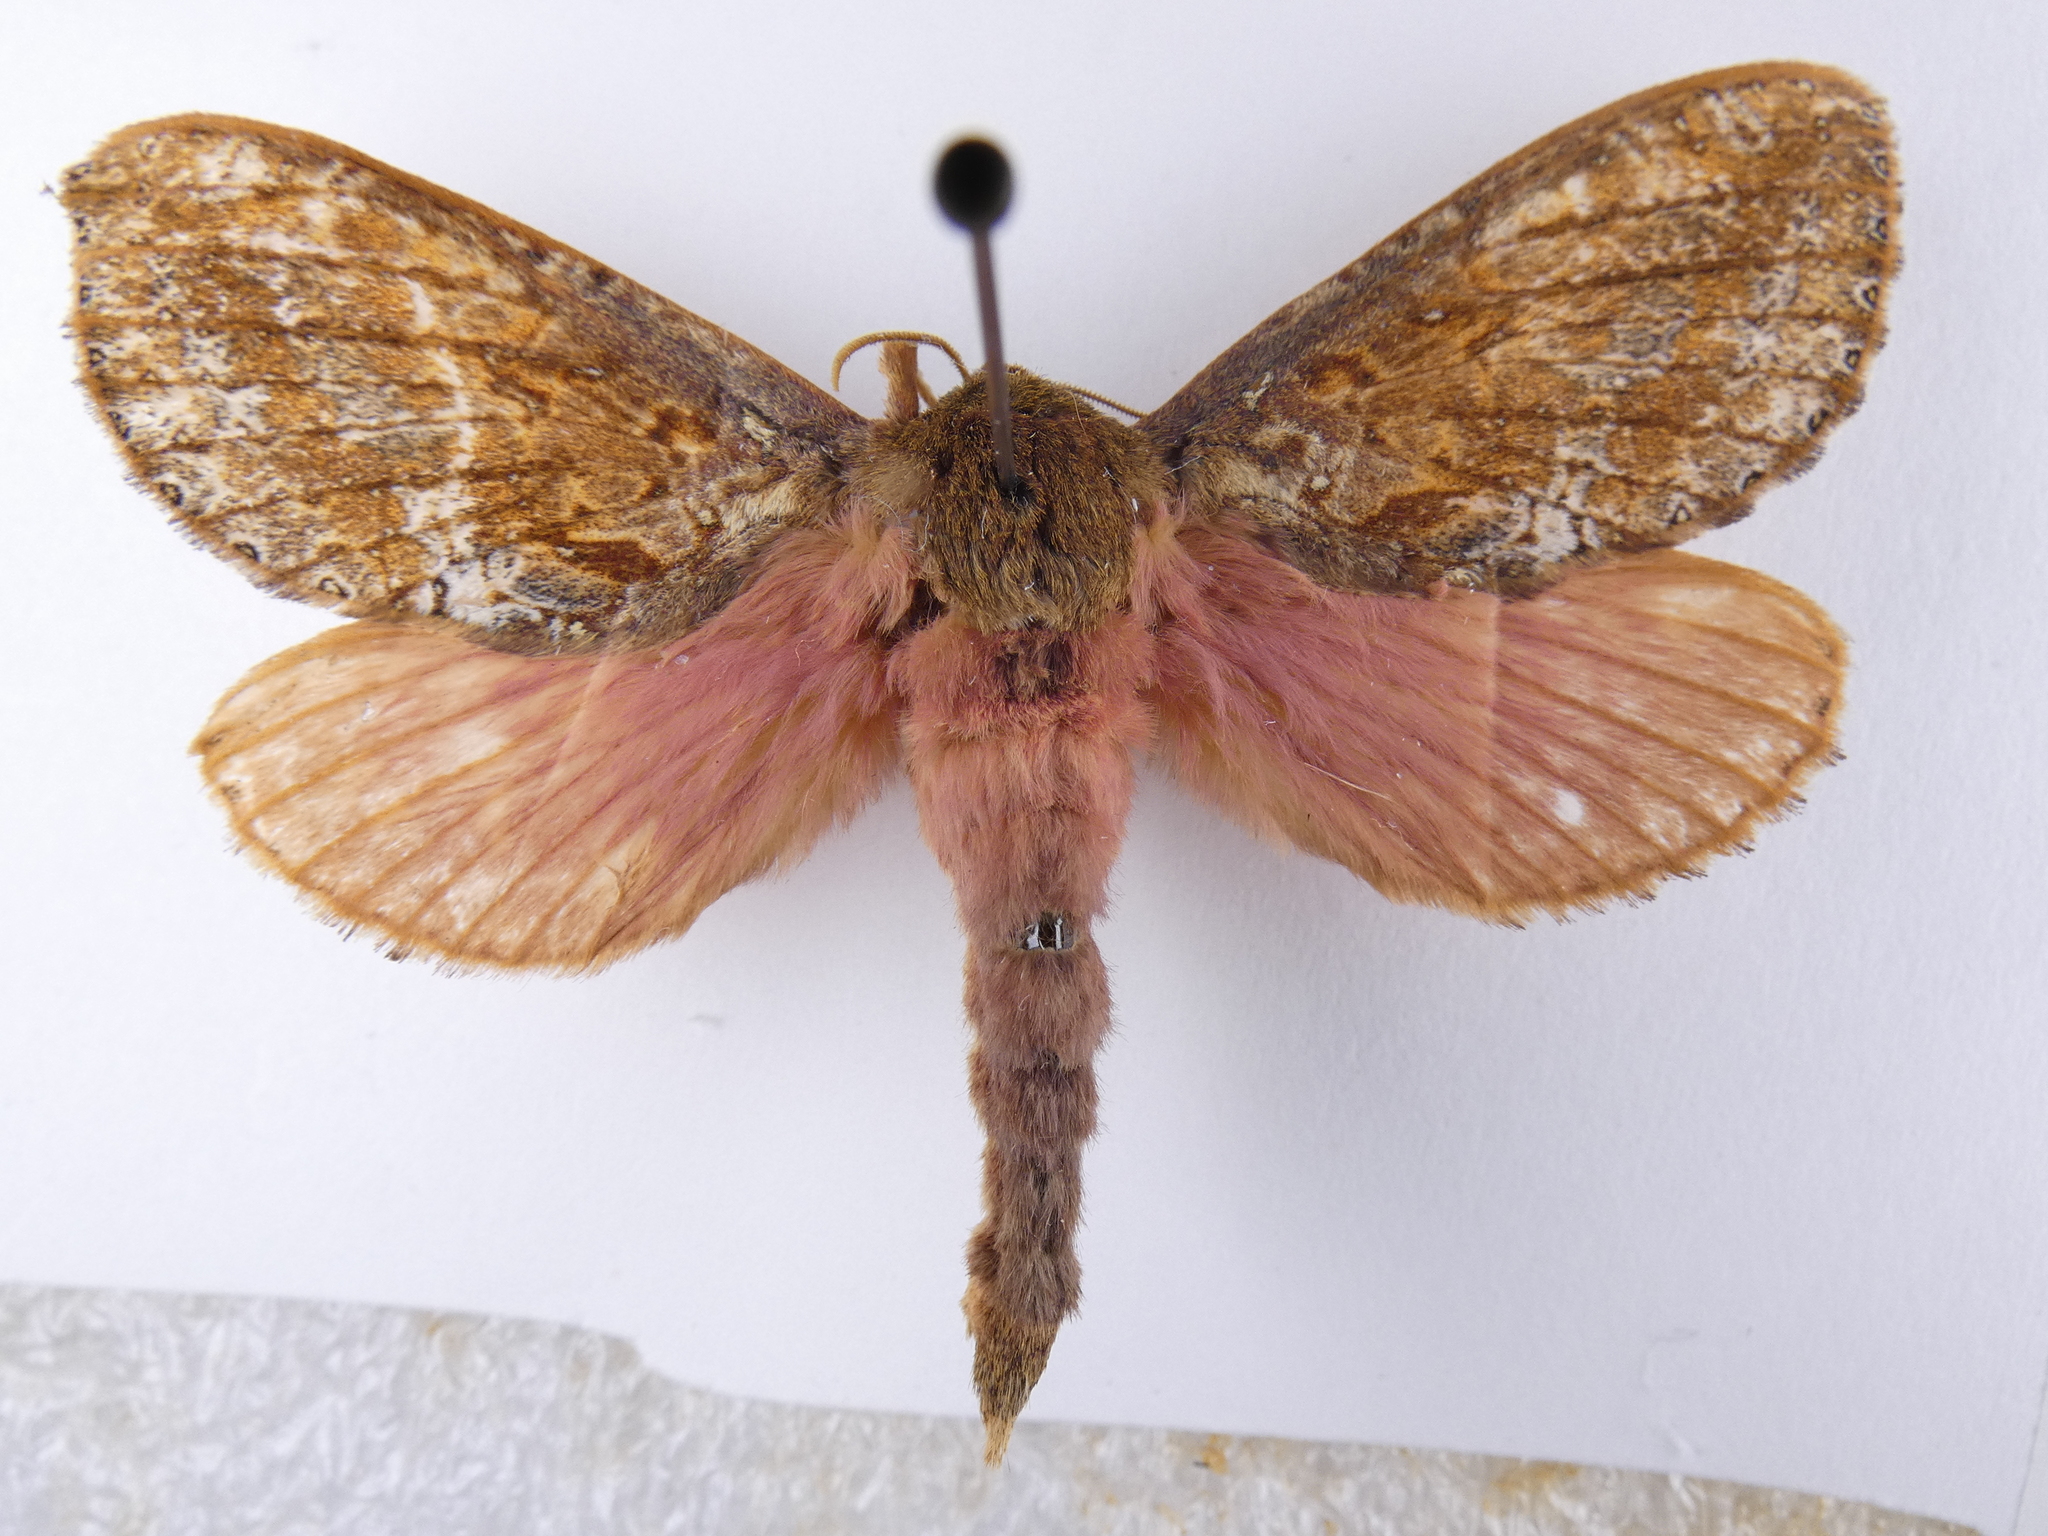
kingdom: Animalia
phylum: Arthropoda
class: Insecta
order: Lepidoptera
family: Hepialidae
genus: Dumbletonius
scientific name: Dumbletonius unimaculata
